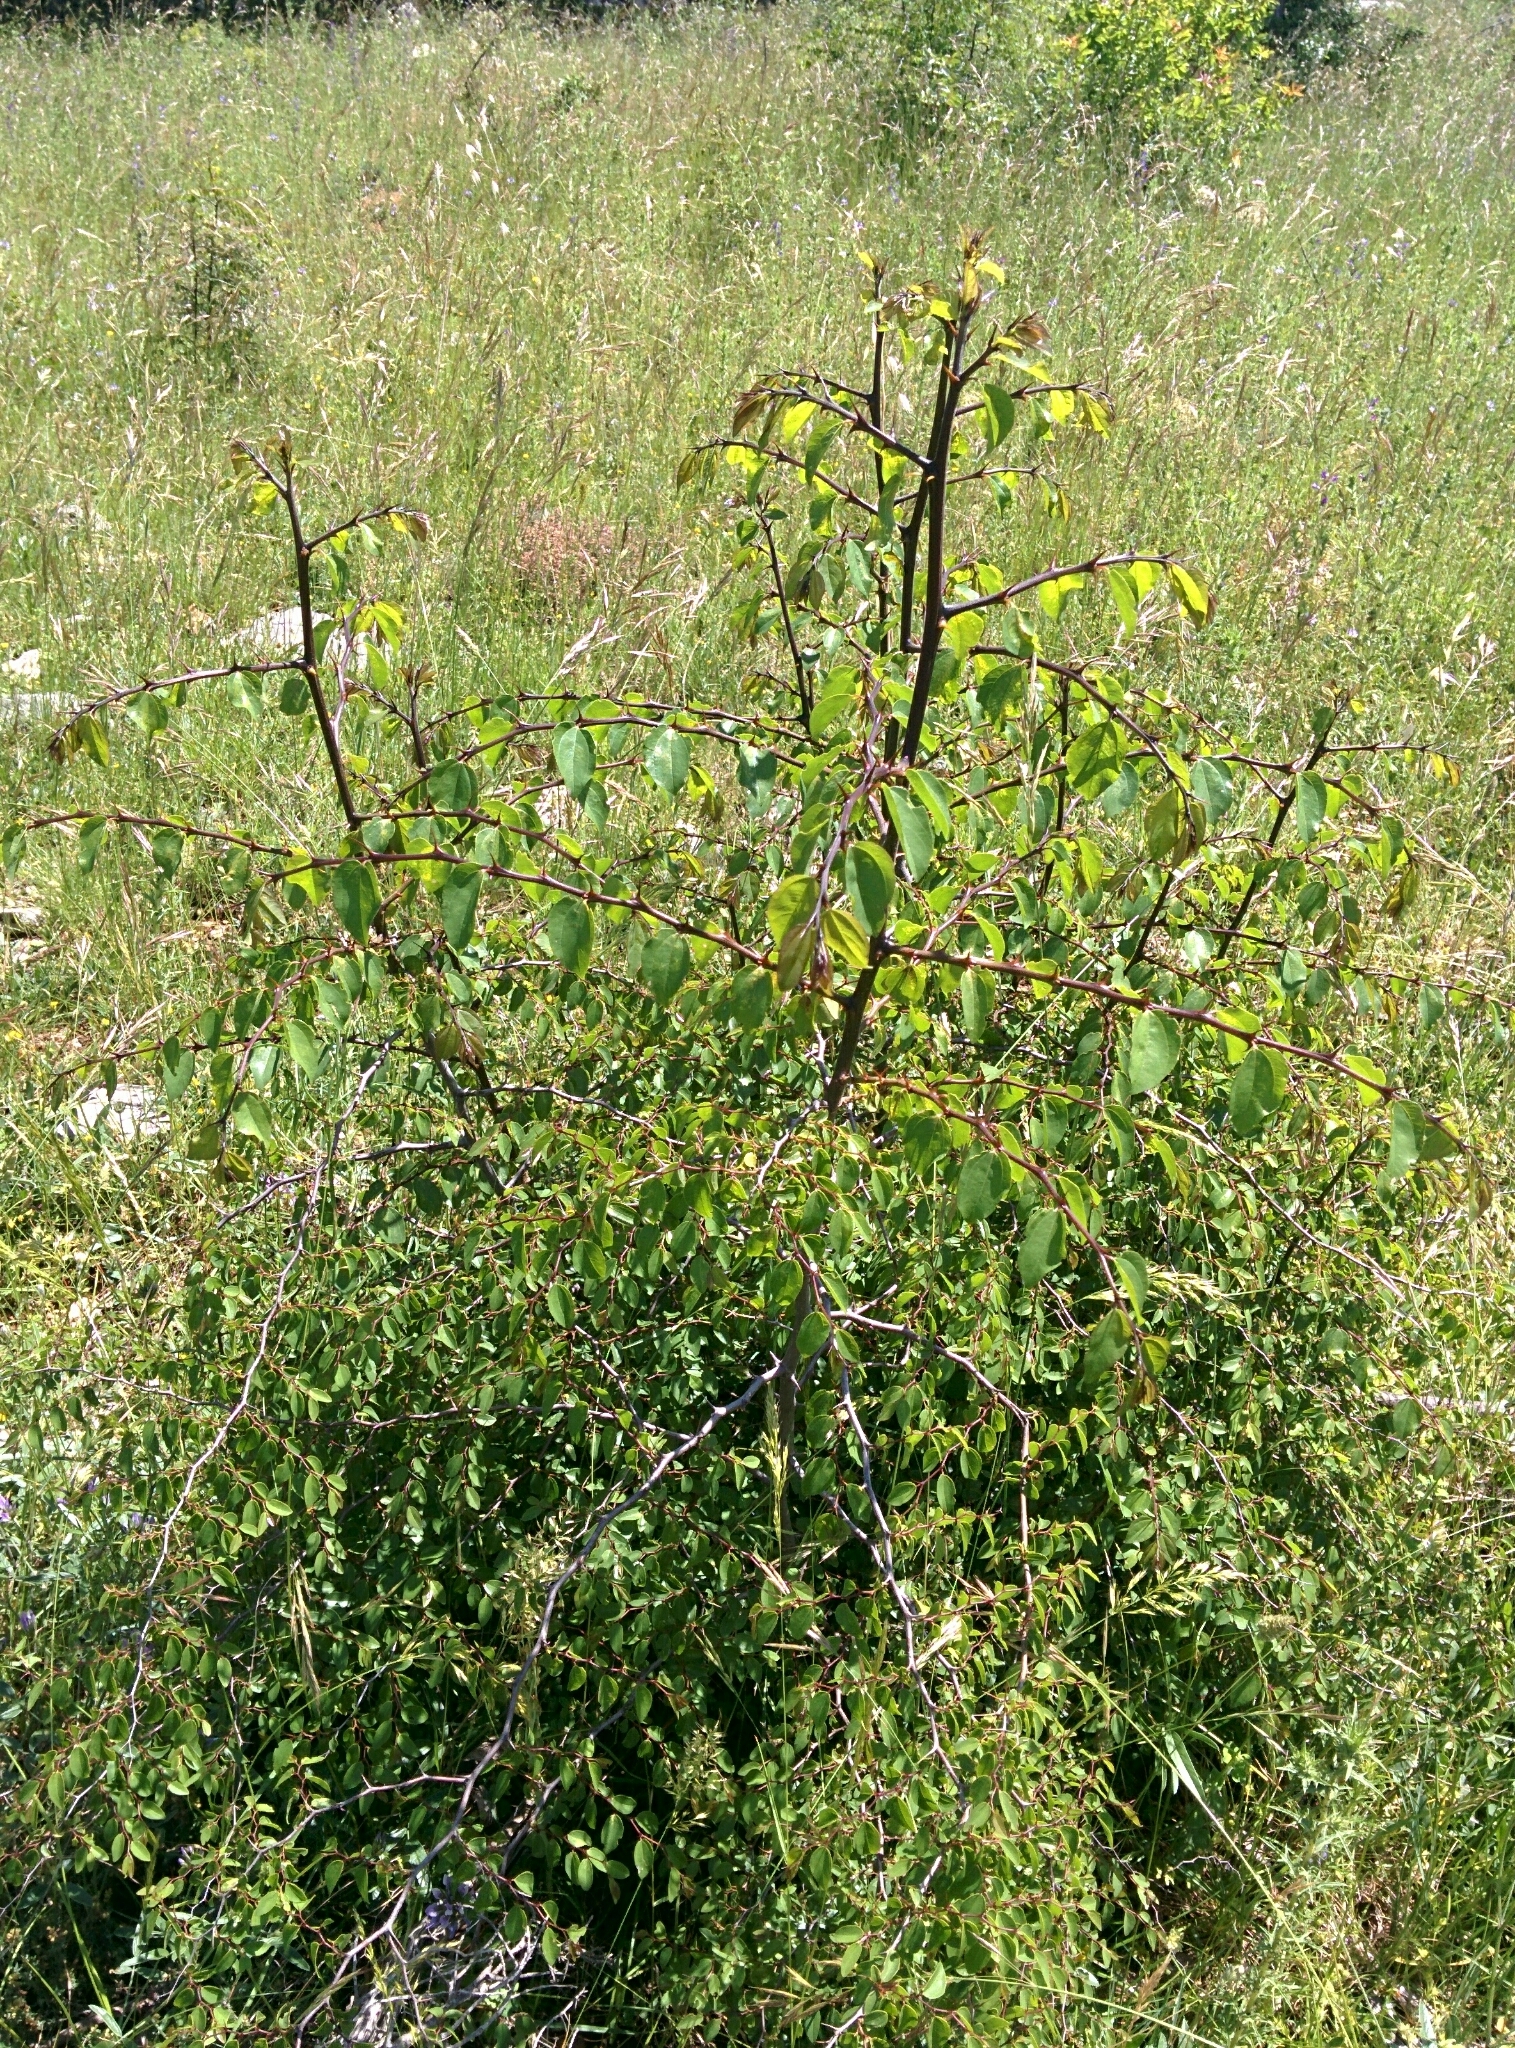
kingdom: Plantae
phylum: Tracheophyta
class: Magnoliopsida
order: Rosales
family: Rhamnaceae
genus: Paliurus
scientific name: Paliurus spina-christi
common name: Jeruselem thorn
